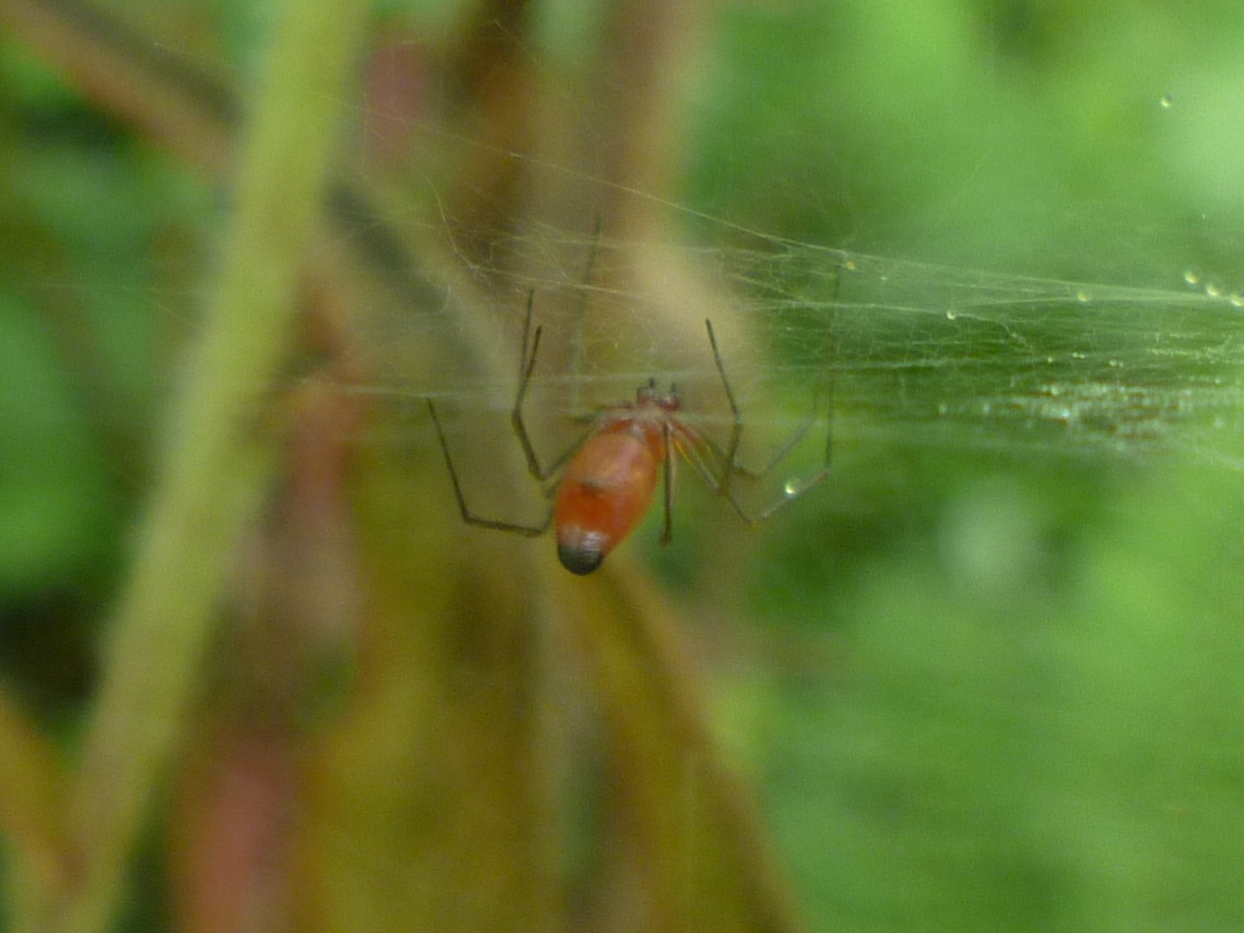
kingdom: Animalia
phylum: Arthropoda
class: Arachnida
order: Araneae
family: Linyphiidae
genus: Florinda
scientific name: Florinda coccinea
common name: Black-tailed red sheetweaver
